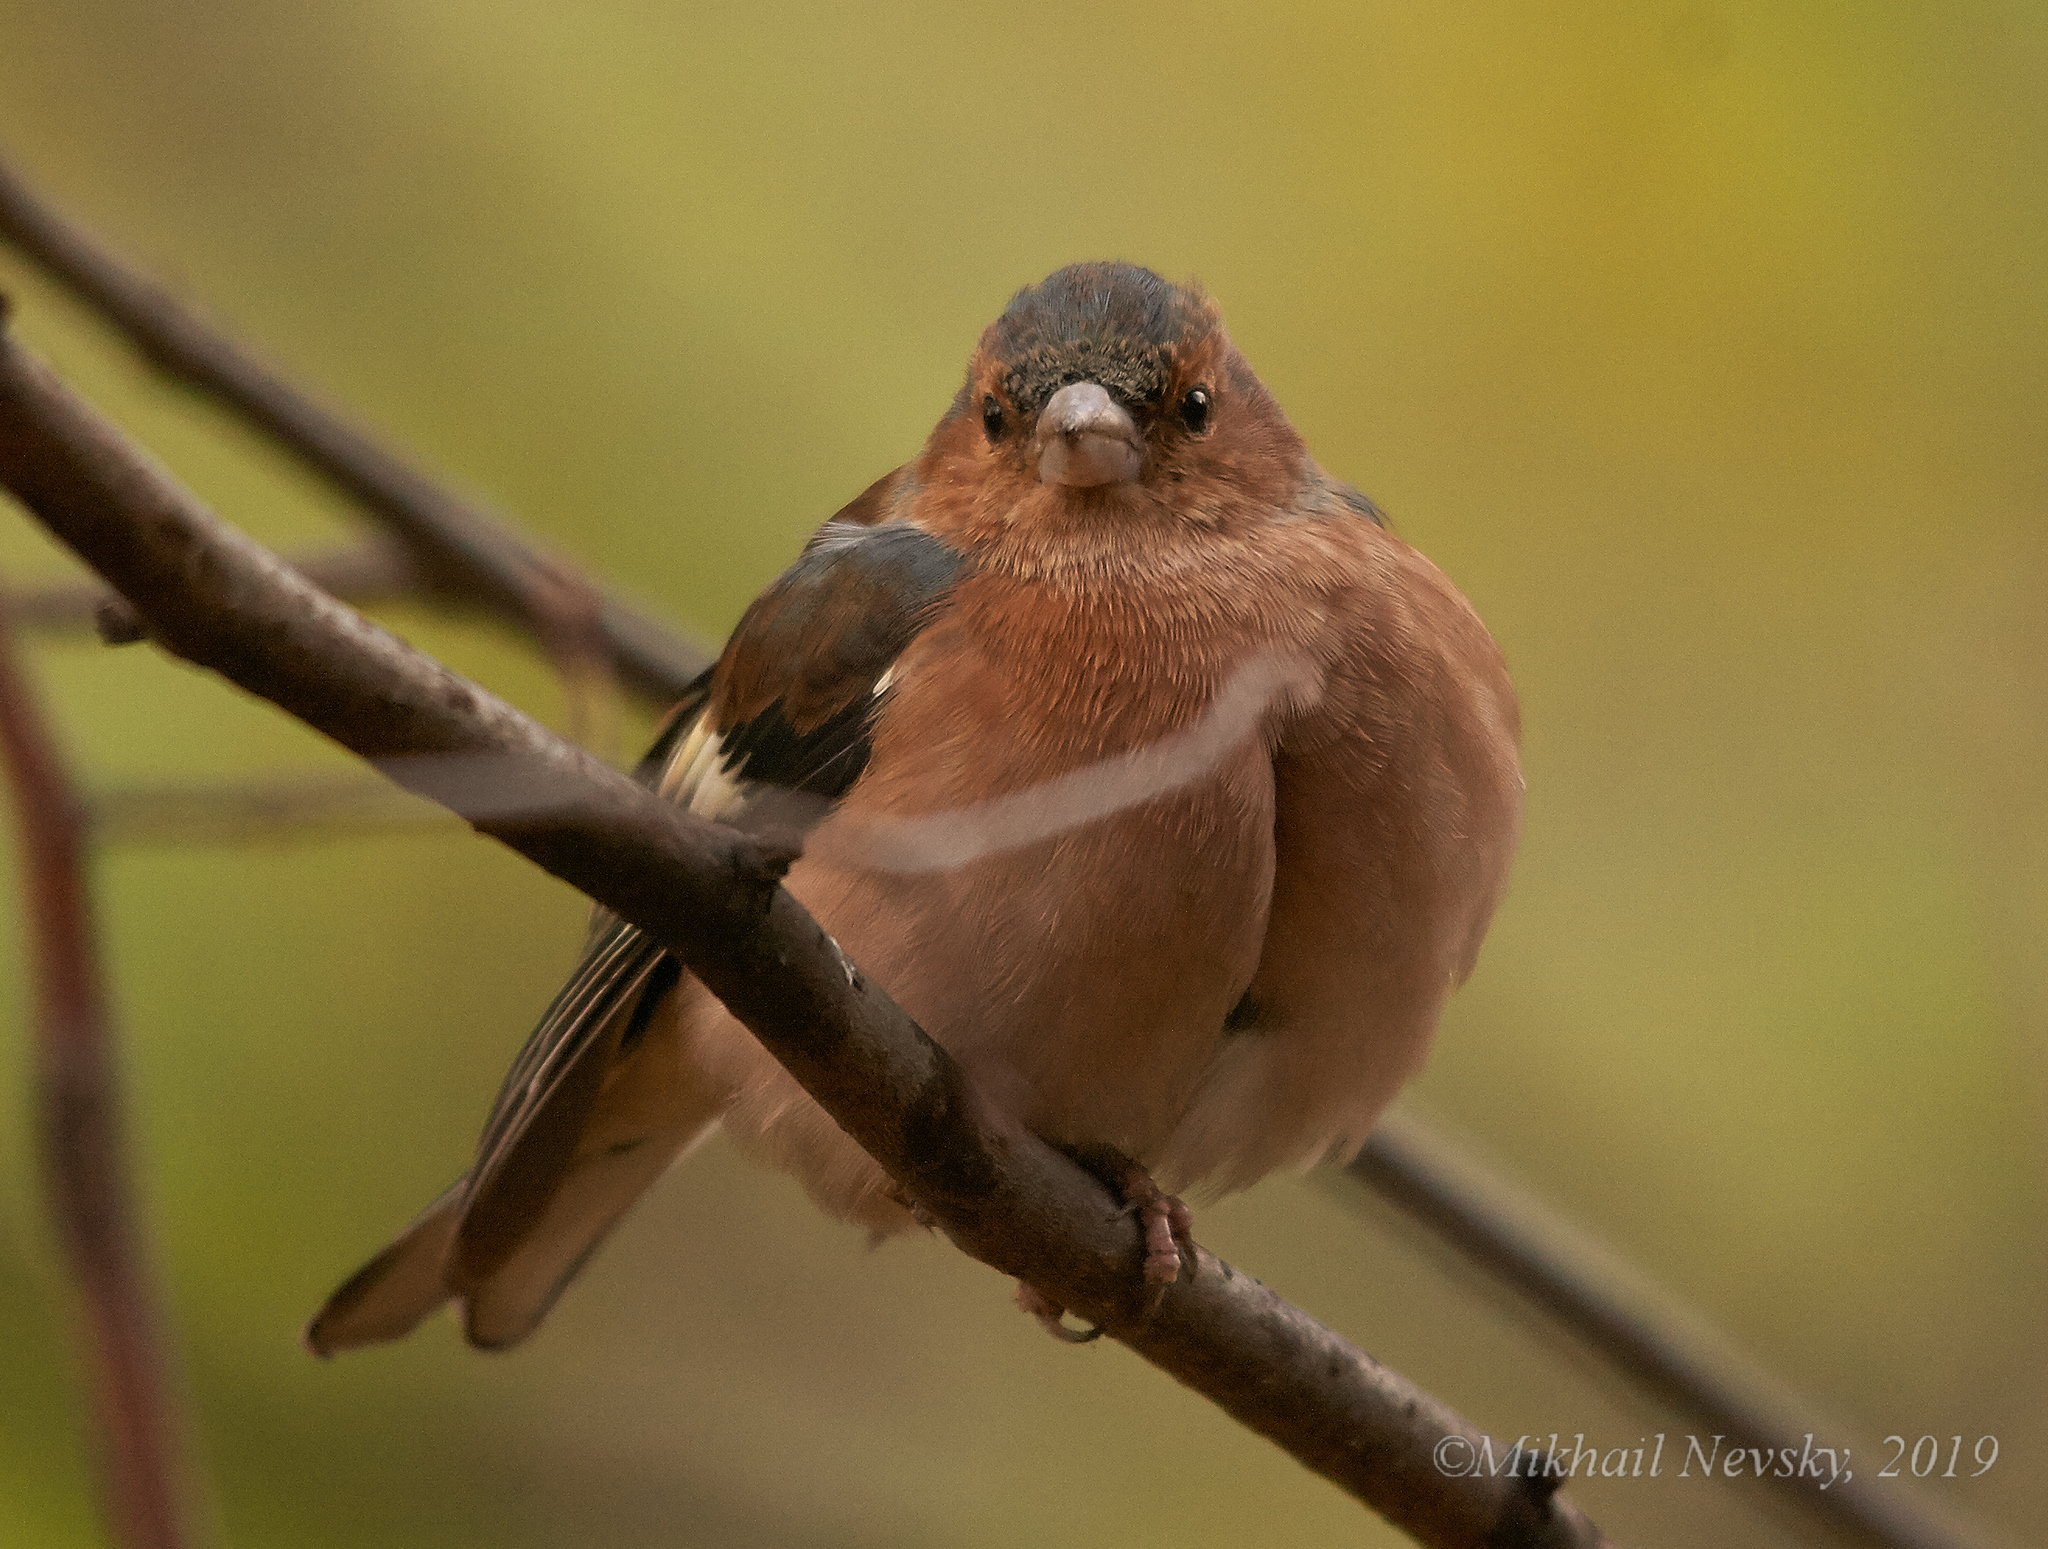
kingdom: Animalia
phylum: Chordata
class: Aves
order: Passeriformes
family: Fringillidae
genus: Fringilla
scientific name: Fringilla coelebs
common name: Common chaffinch
